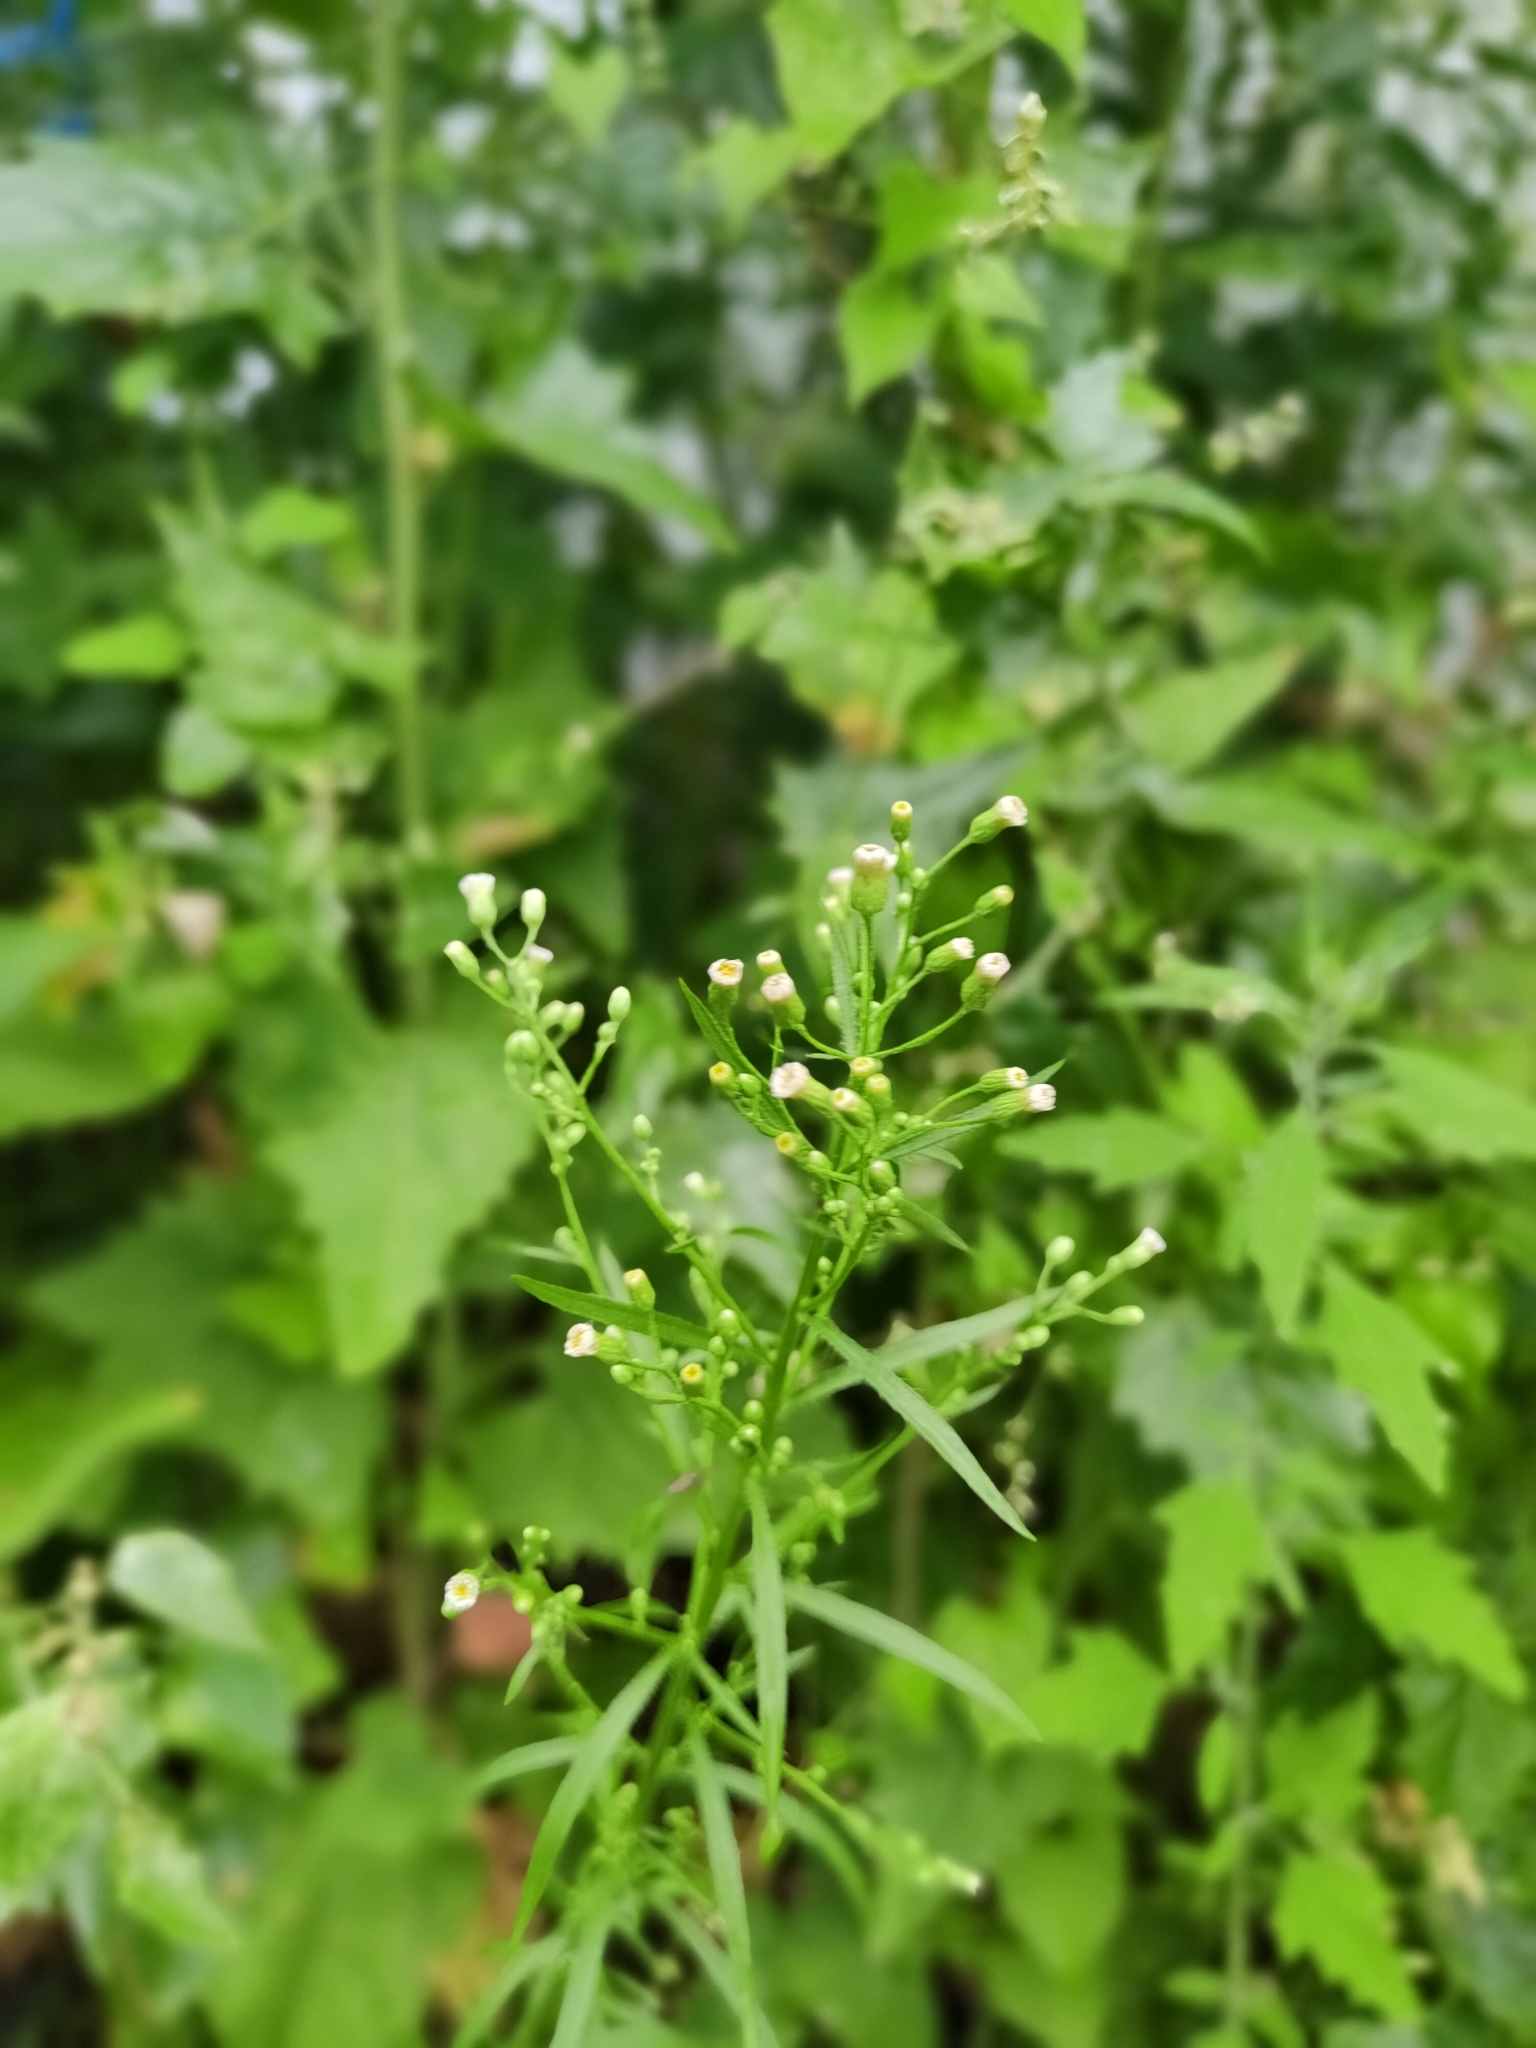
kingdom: Plantae
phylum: Tracheophyta
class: Magnoliopsida
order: Asterales
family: Asteraceae
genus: Erigeron
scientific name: Erigeron canadensis
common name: Canadian fleabane
